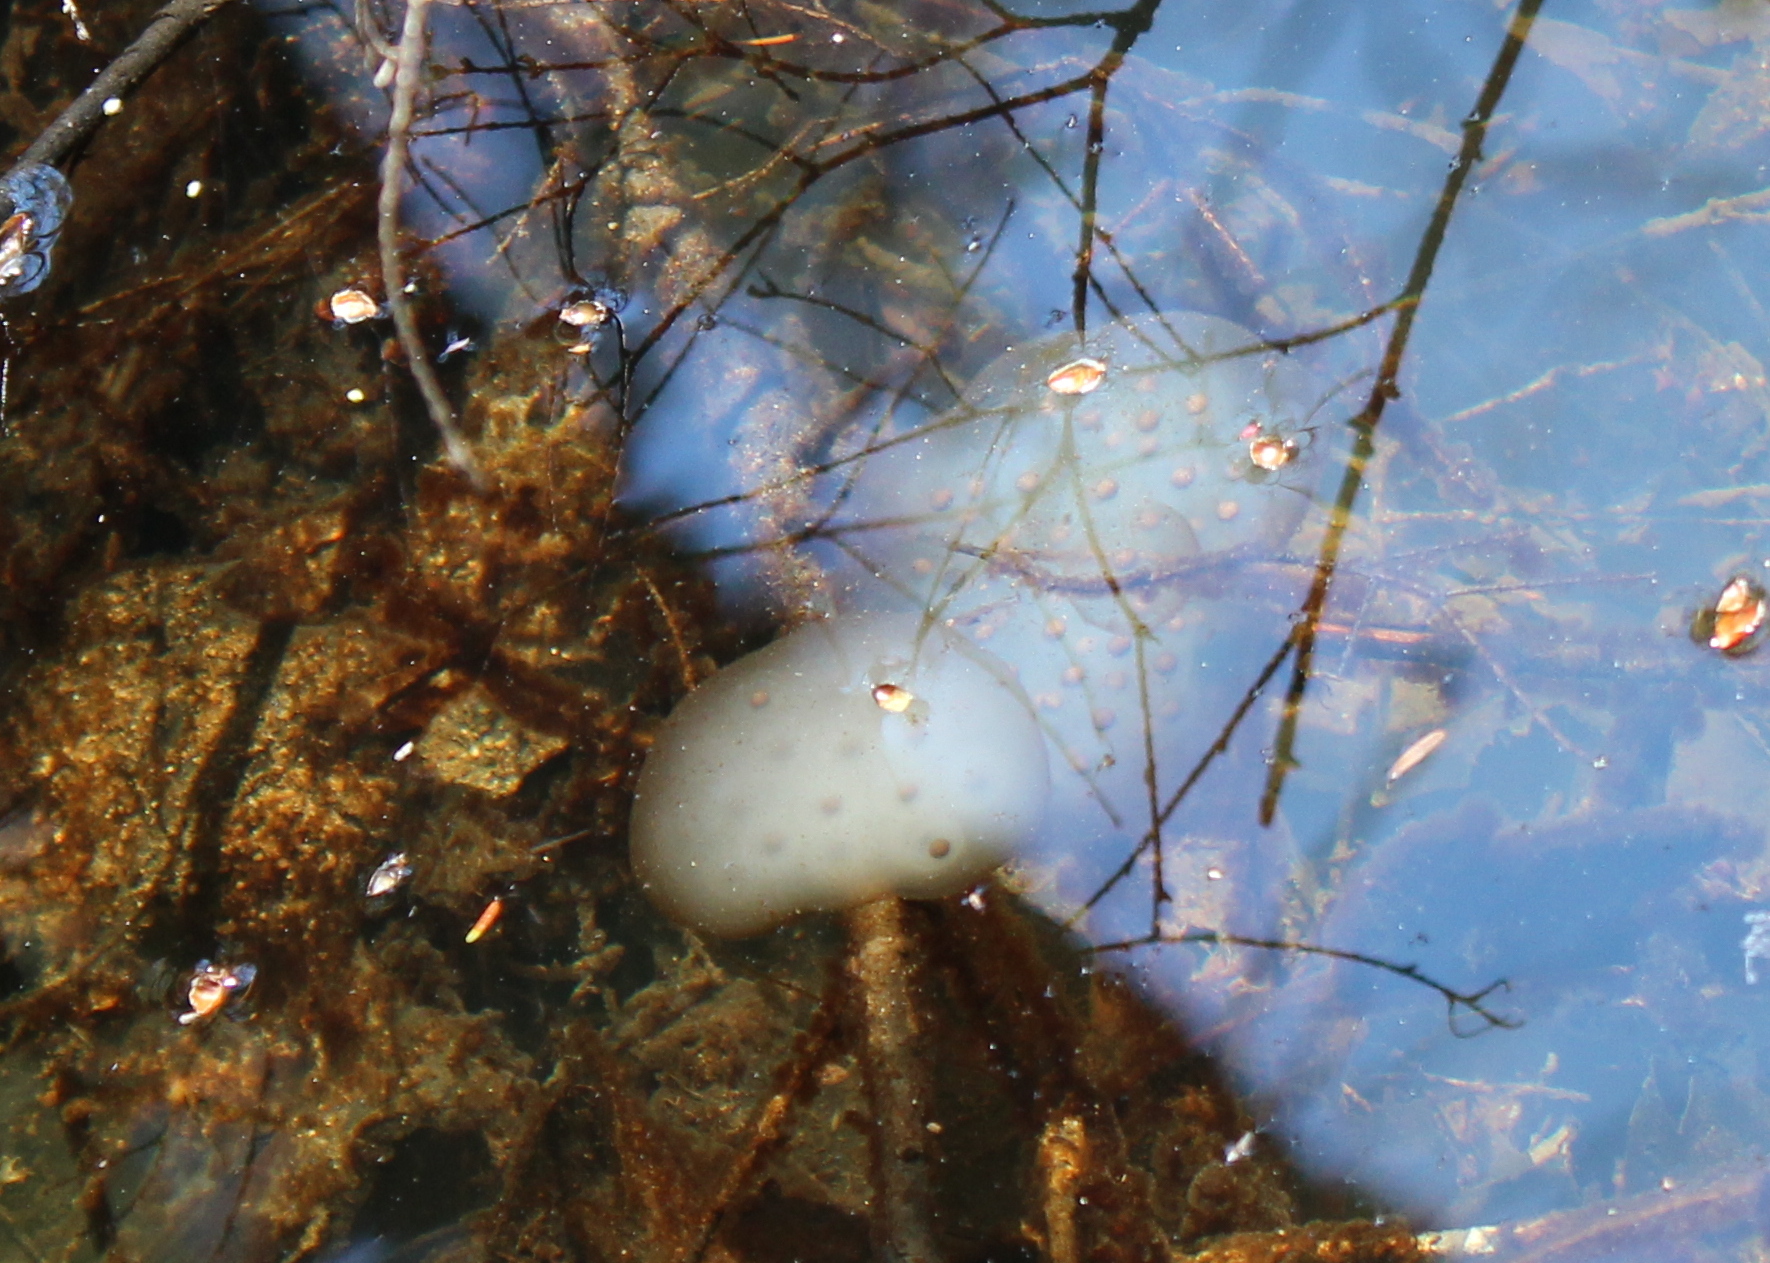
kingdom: Animalia
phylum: Chordata
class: Amphibia
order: Caudata
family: Ambystomatidae
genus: Ambystoma
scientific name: Ambystoma maculatum
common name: Spotted salamander
